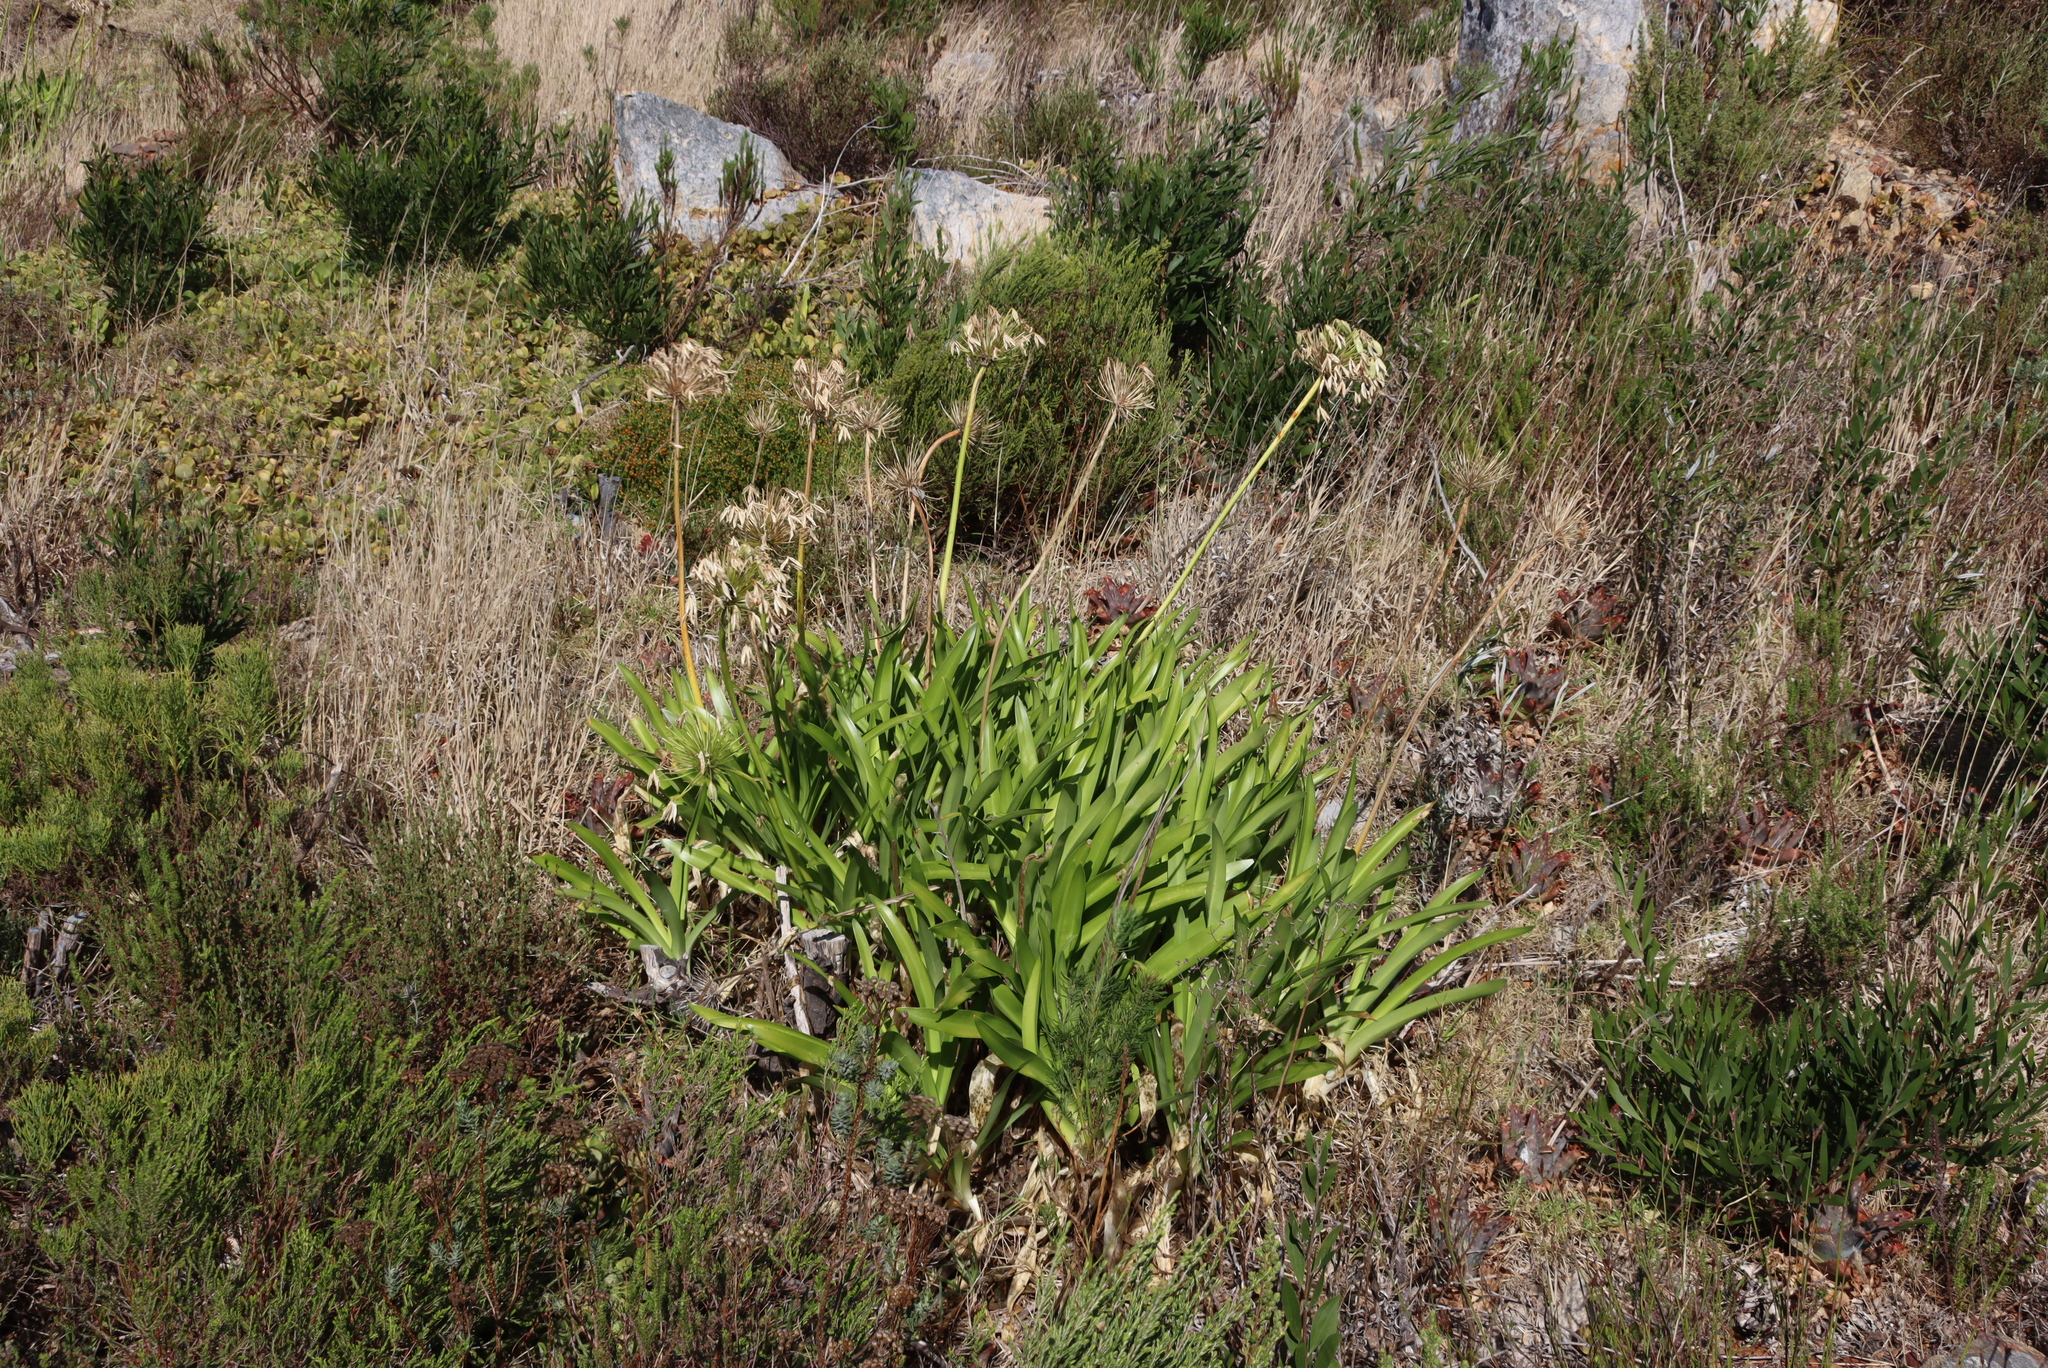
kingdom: Plantae
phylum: Tracheophyta
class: Liliopsida
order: Asparagales
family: Amaryllidaceae
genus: Agapanthus
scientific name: Agapanthus praecox
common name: African-lily
